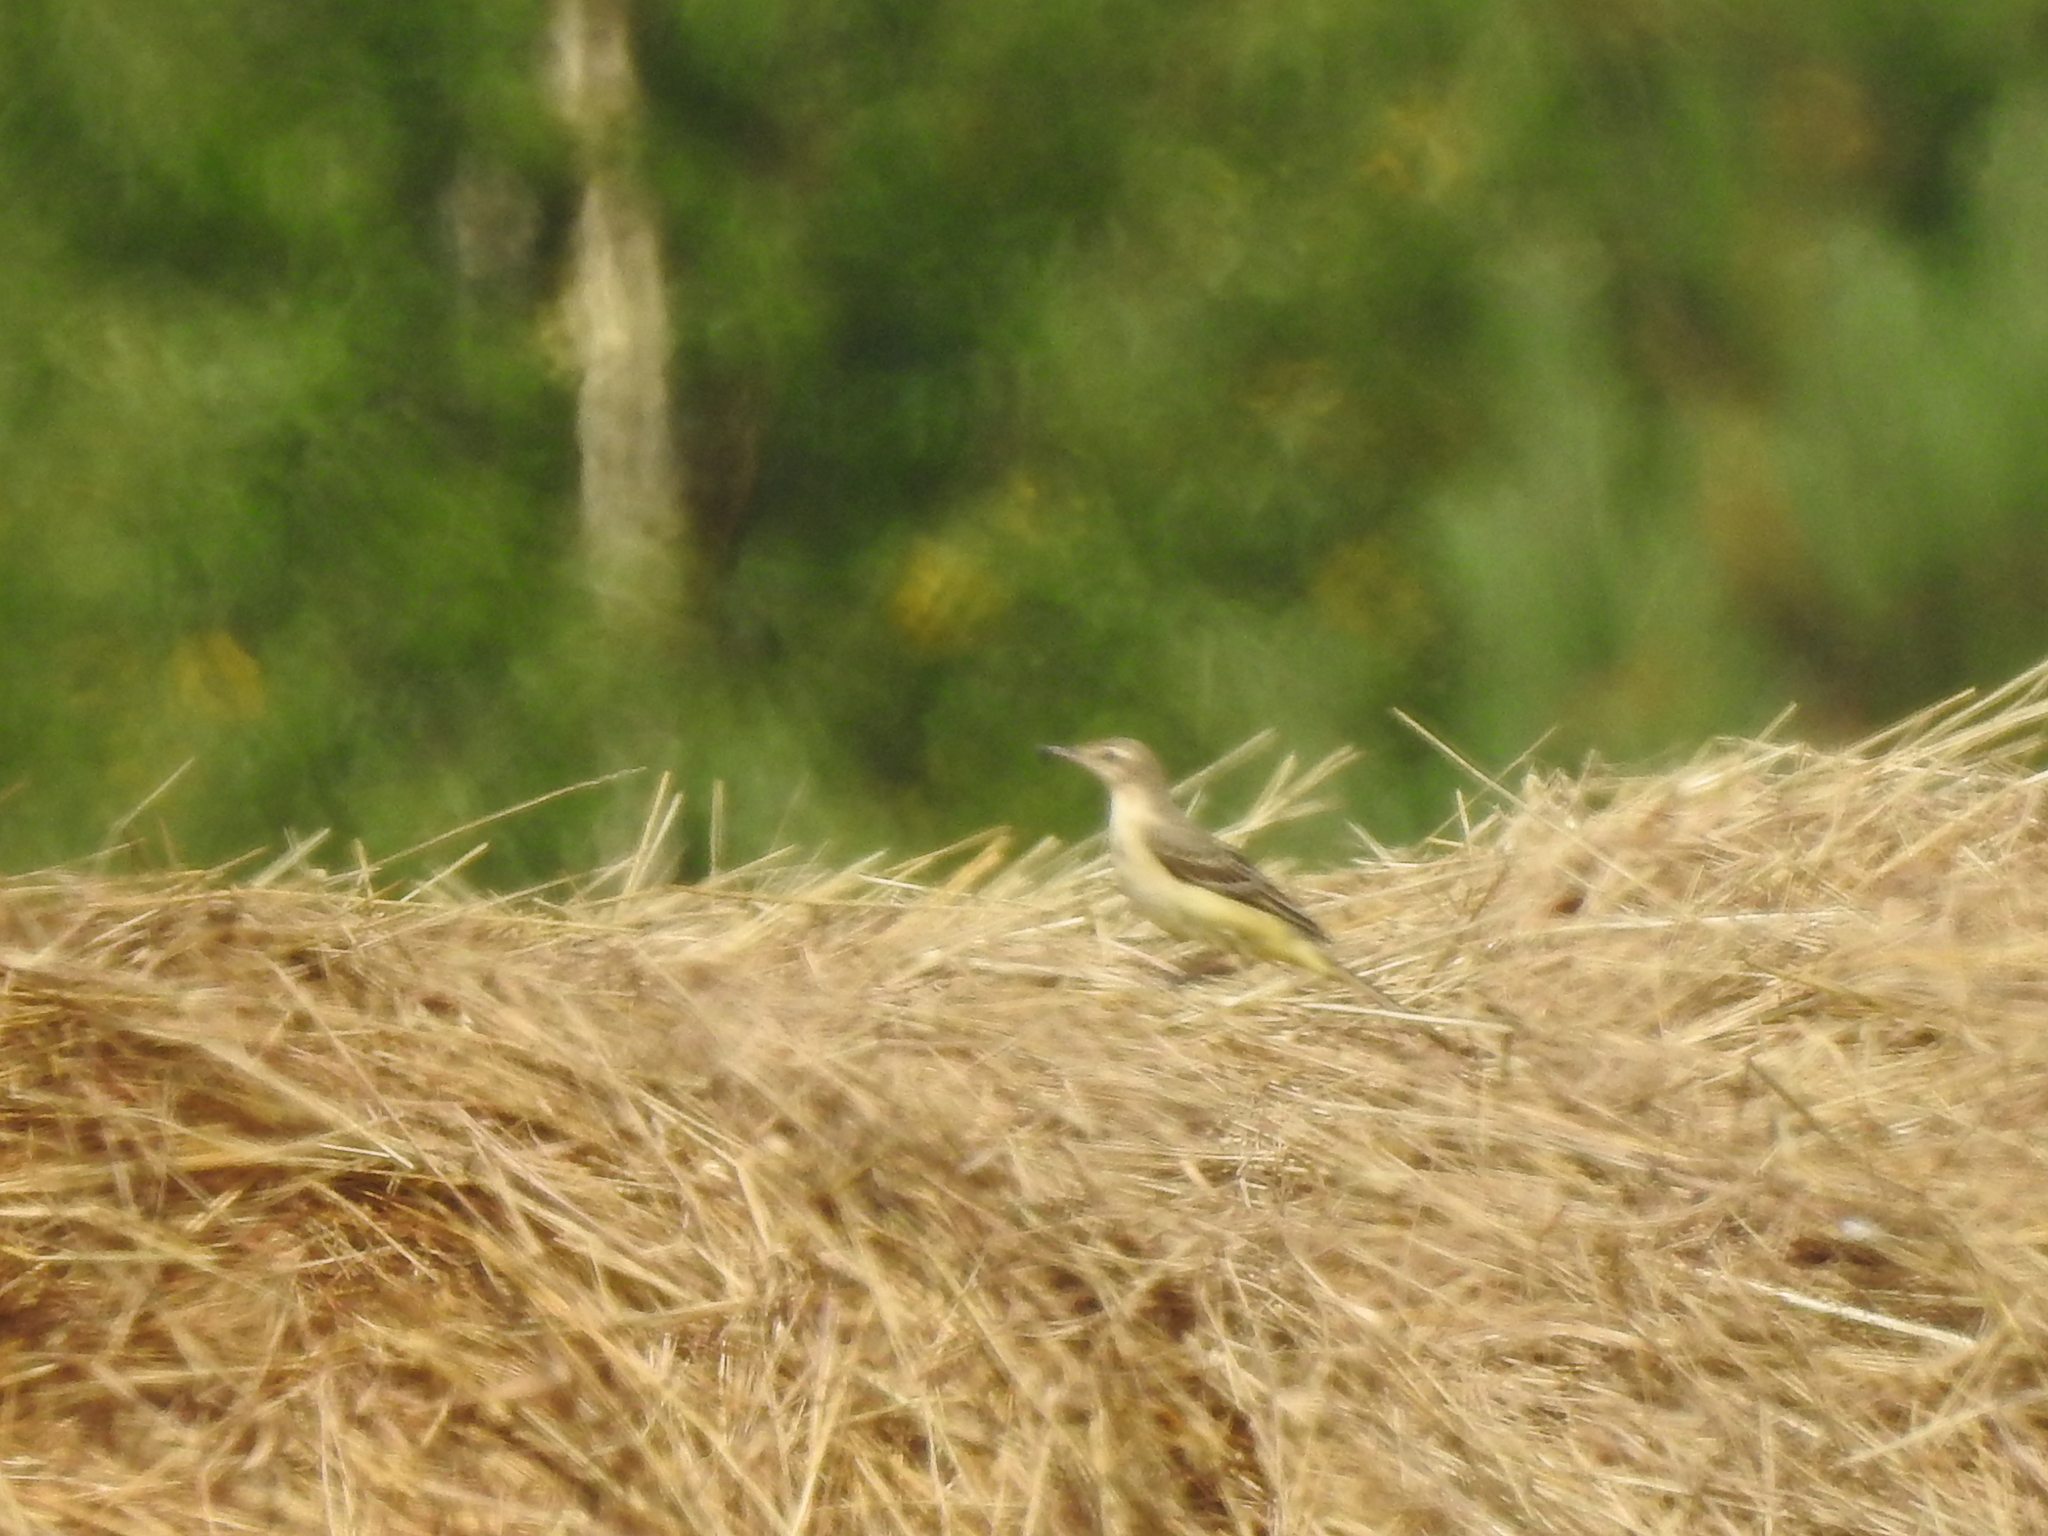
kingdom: Animalia
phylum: Chordata
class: Aves
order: Passeriformes
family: Motacillidae
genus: Motacilla
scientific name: Motacilla flava
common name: Western yellow wagtail
